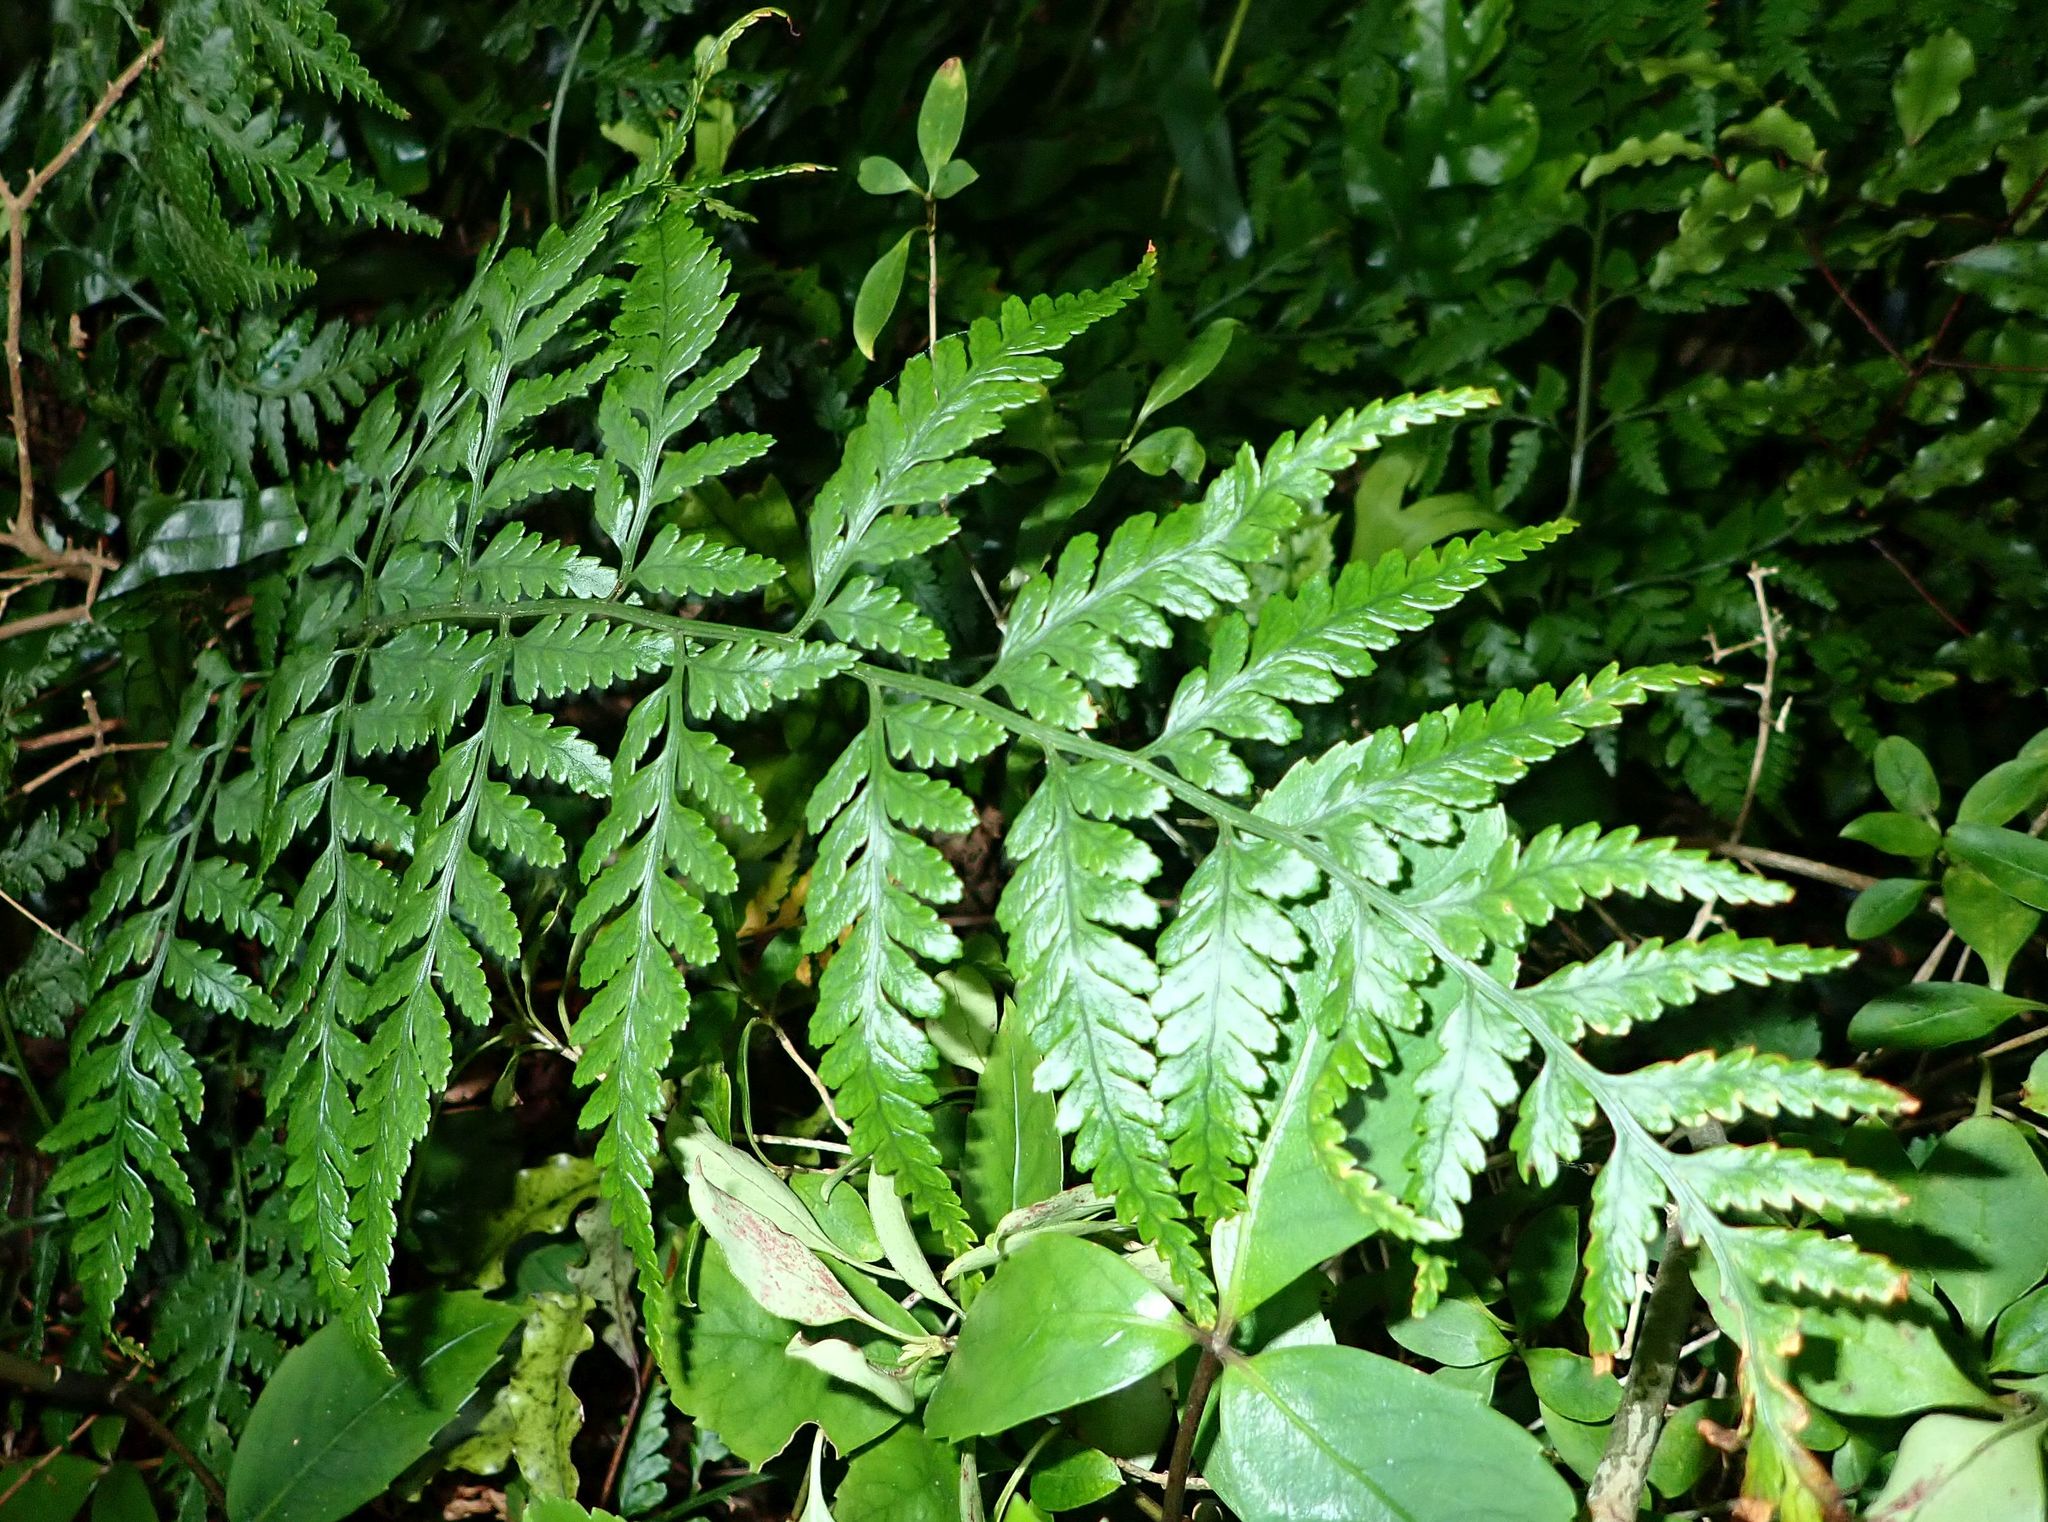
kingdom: Plantae
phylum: Tracheophyta
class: Polypodiopsida
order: Polypodiales
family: Dryopteridaceae
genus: Rumohra
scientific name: Rumohra adiantiformis
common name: Leather fern
